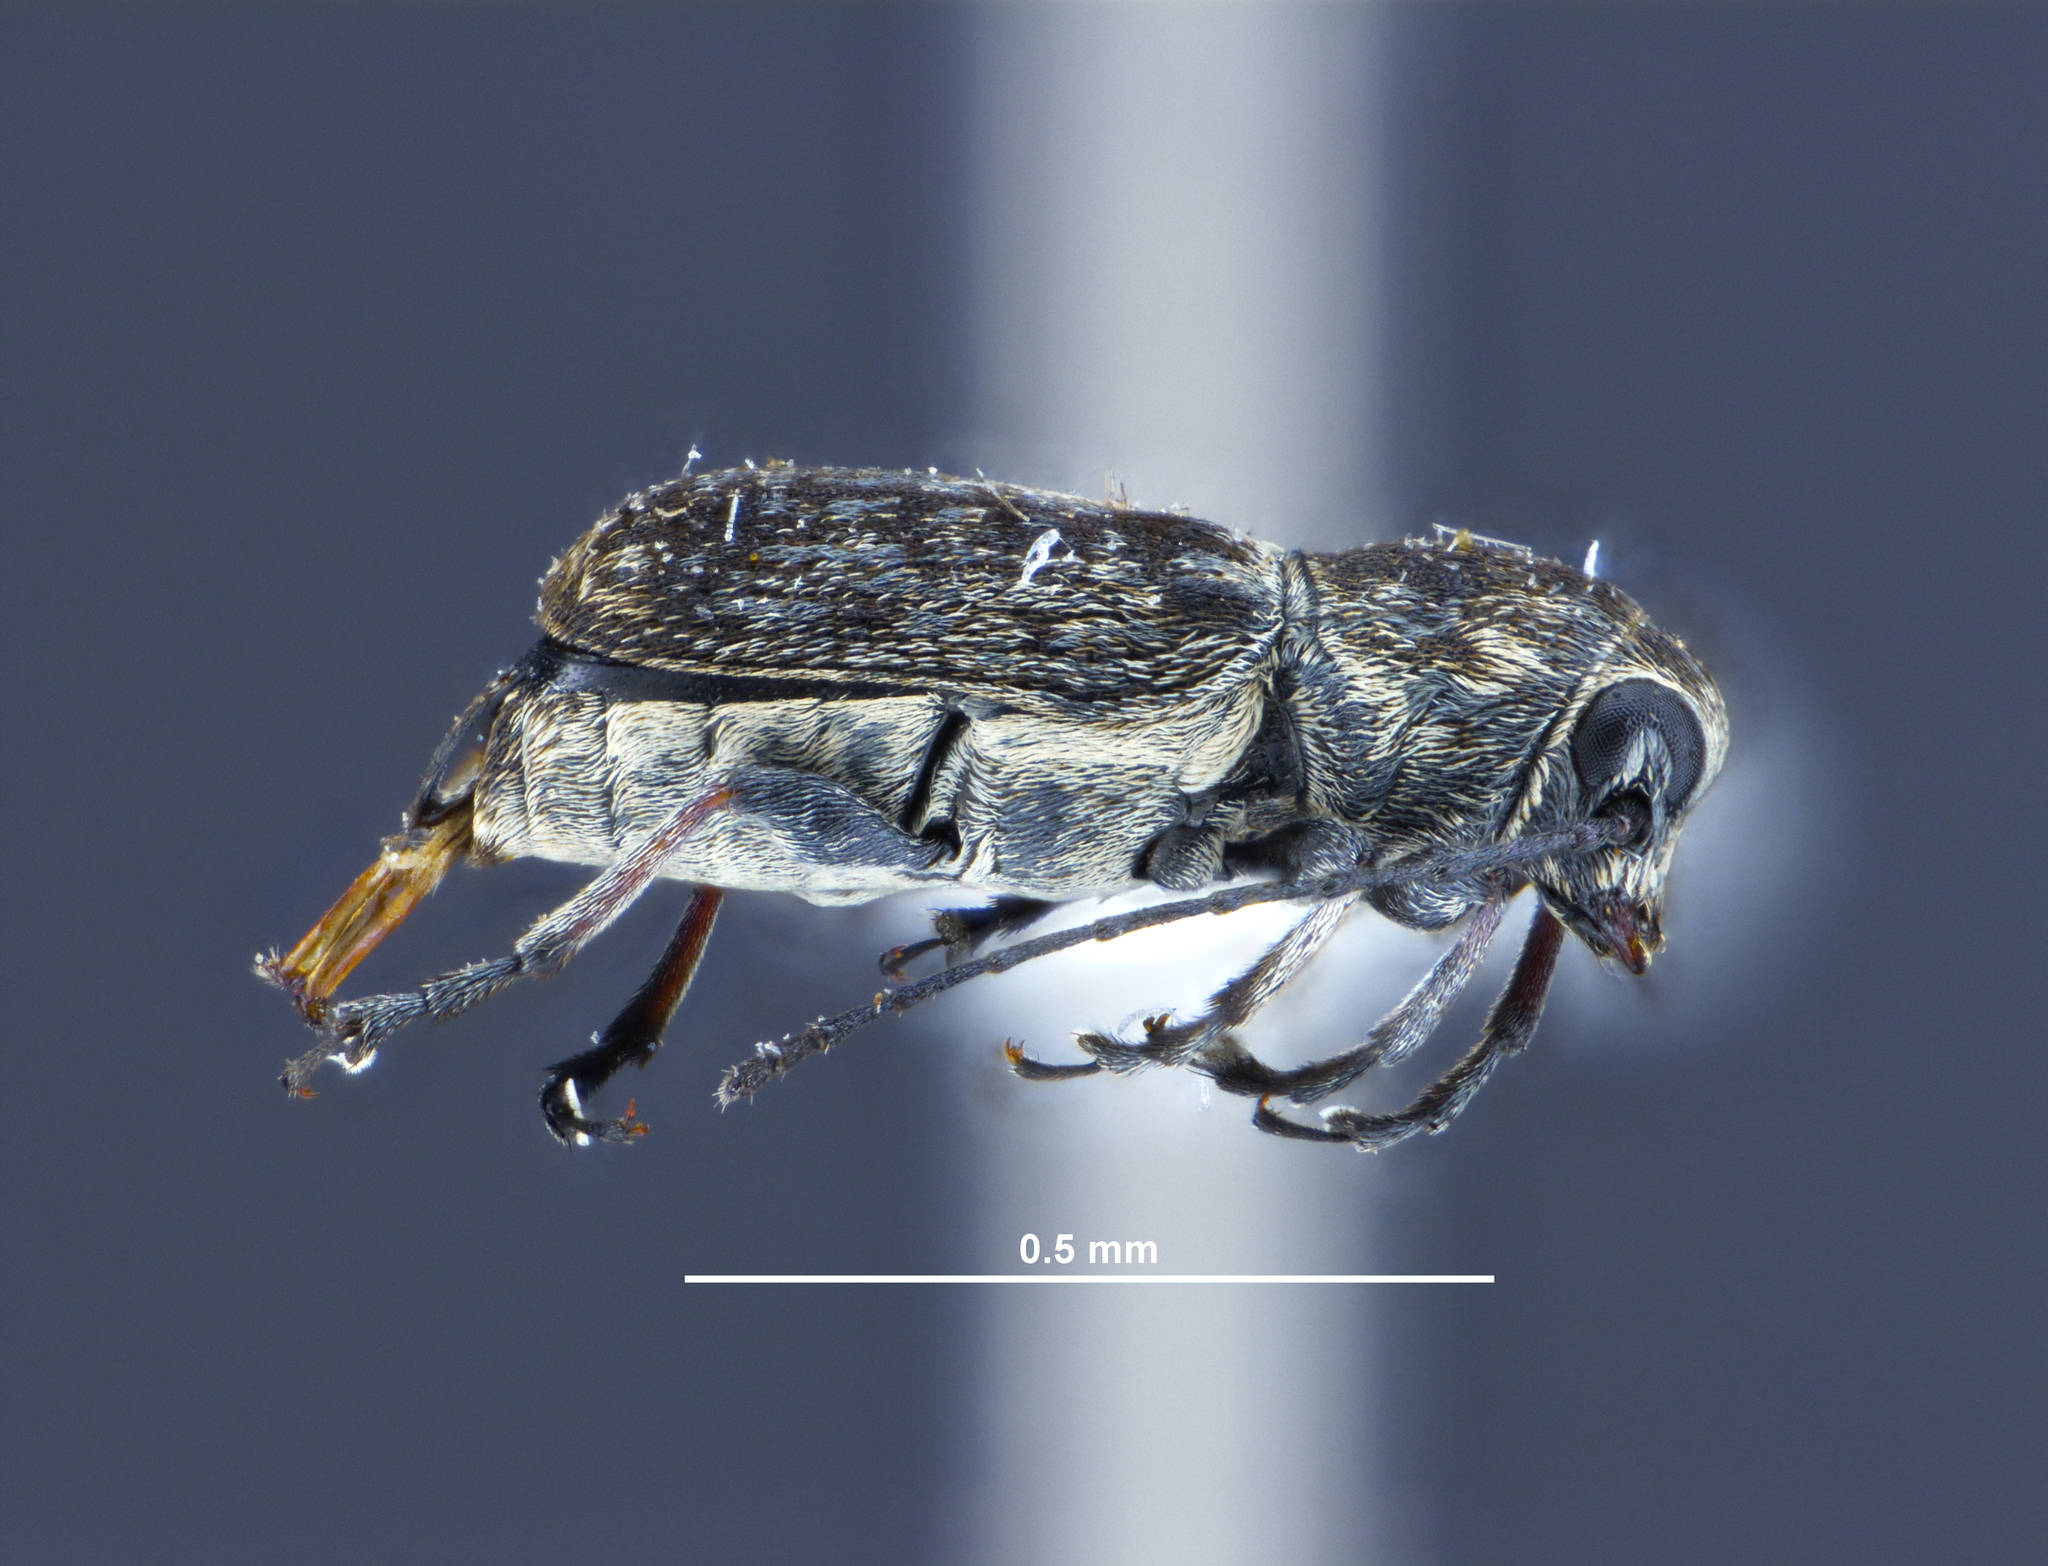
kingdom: Animalia
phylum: Arthropoda
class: Insecta
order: Coleoptera
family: Anthribidae
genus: Euciodes
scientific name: Euciodes suturalis
